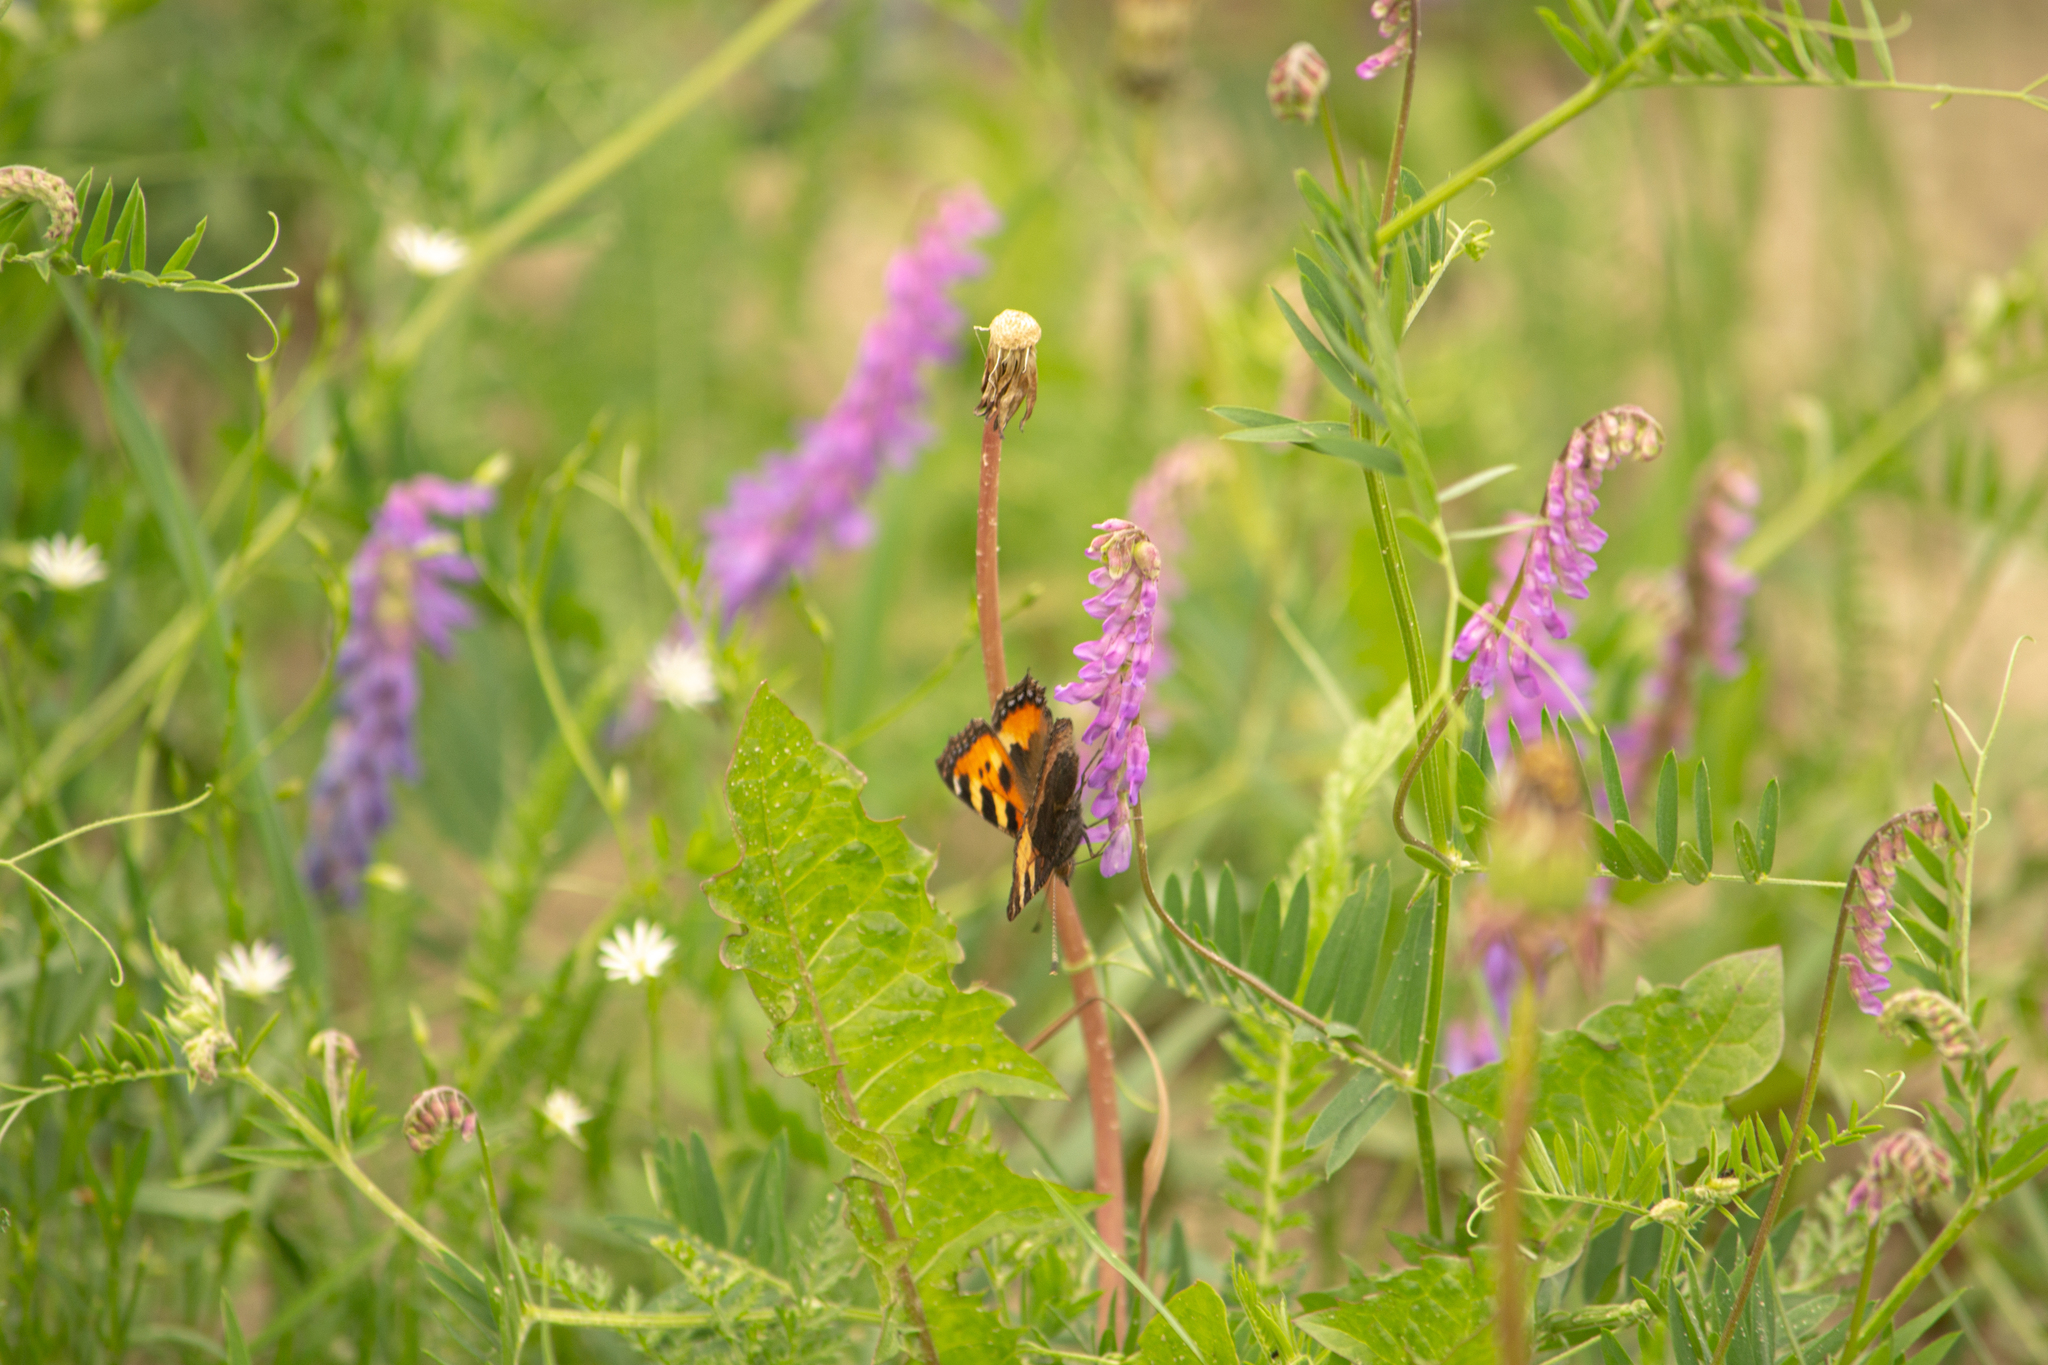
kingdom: Animalia
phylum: Arthropoda
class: Insecta
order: Lepidoptera
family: Nymphalidae
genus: Aglais
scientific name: Aglais urticae
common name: Small tortoiseshell
